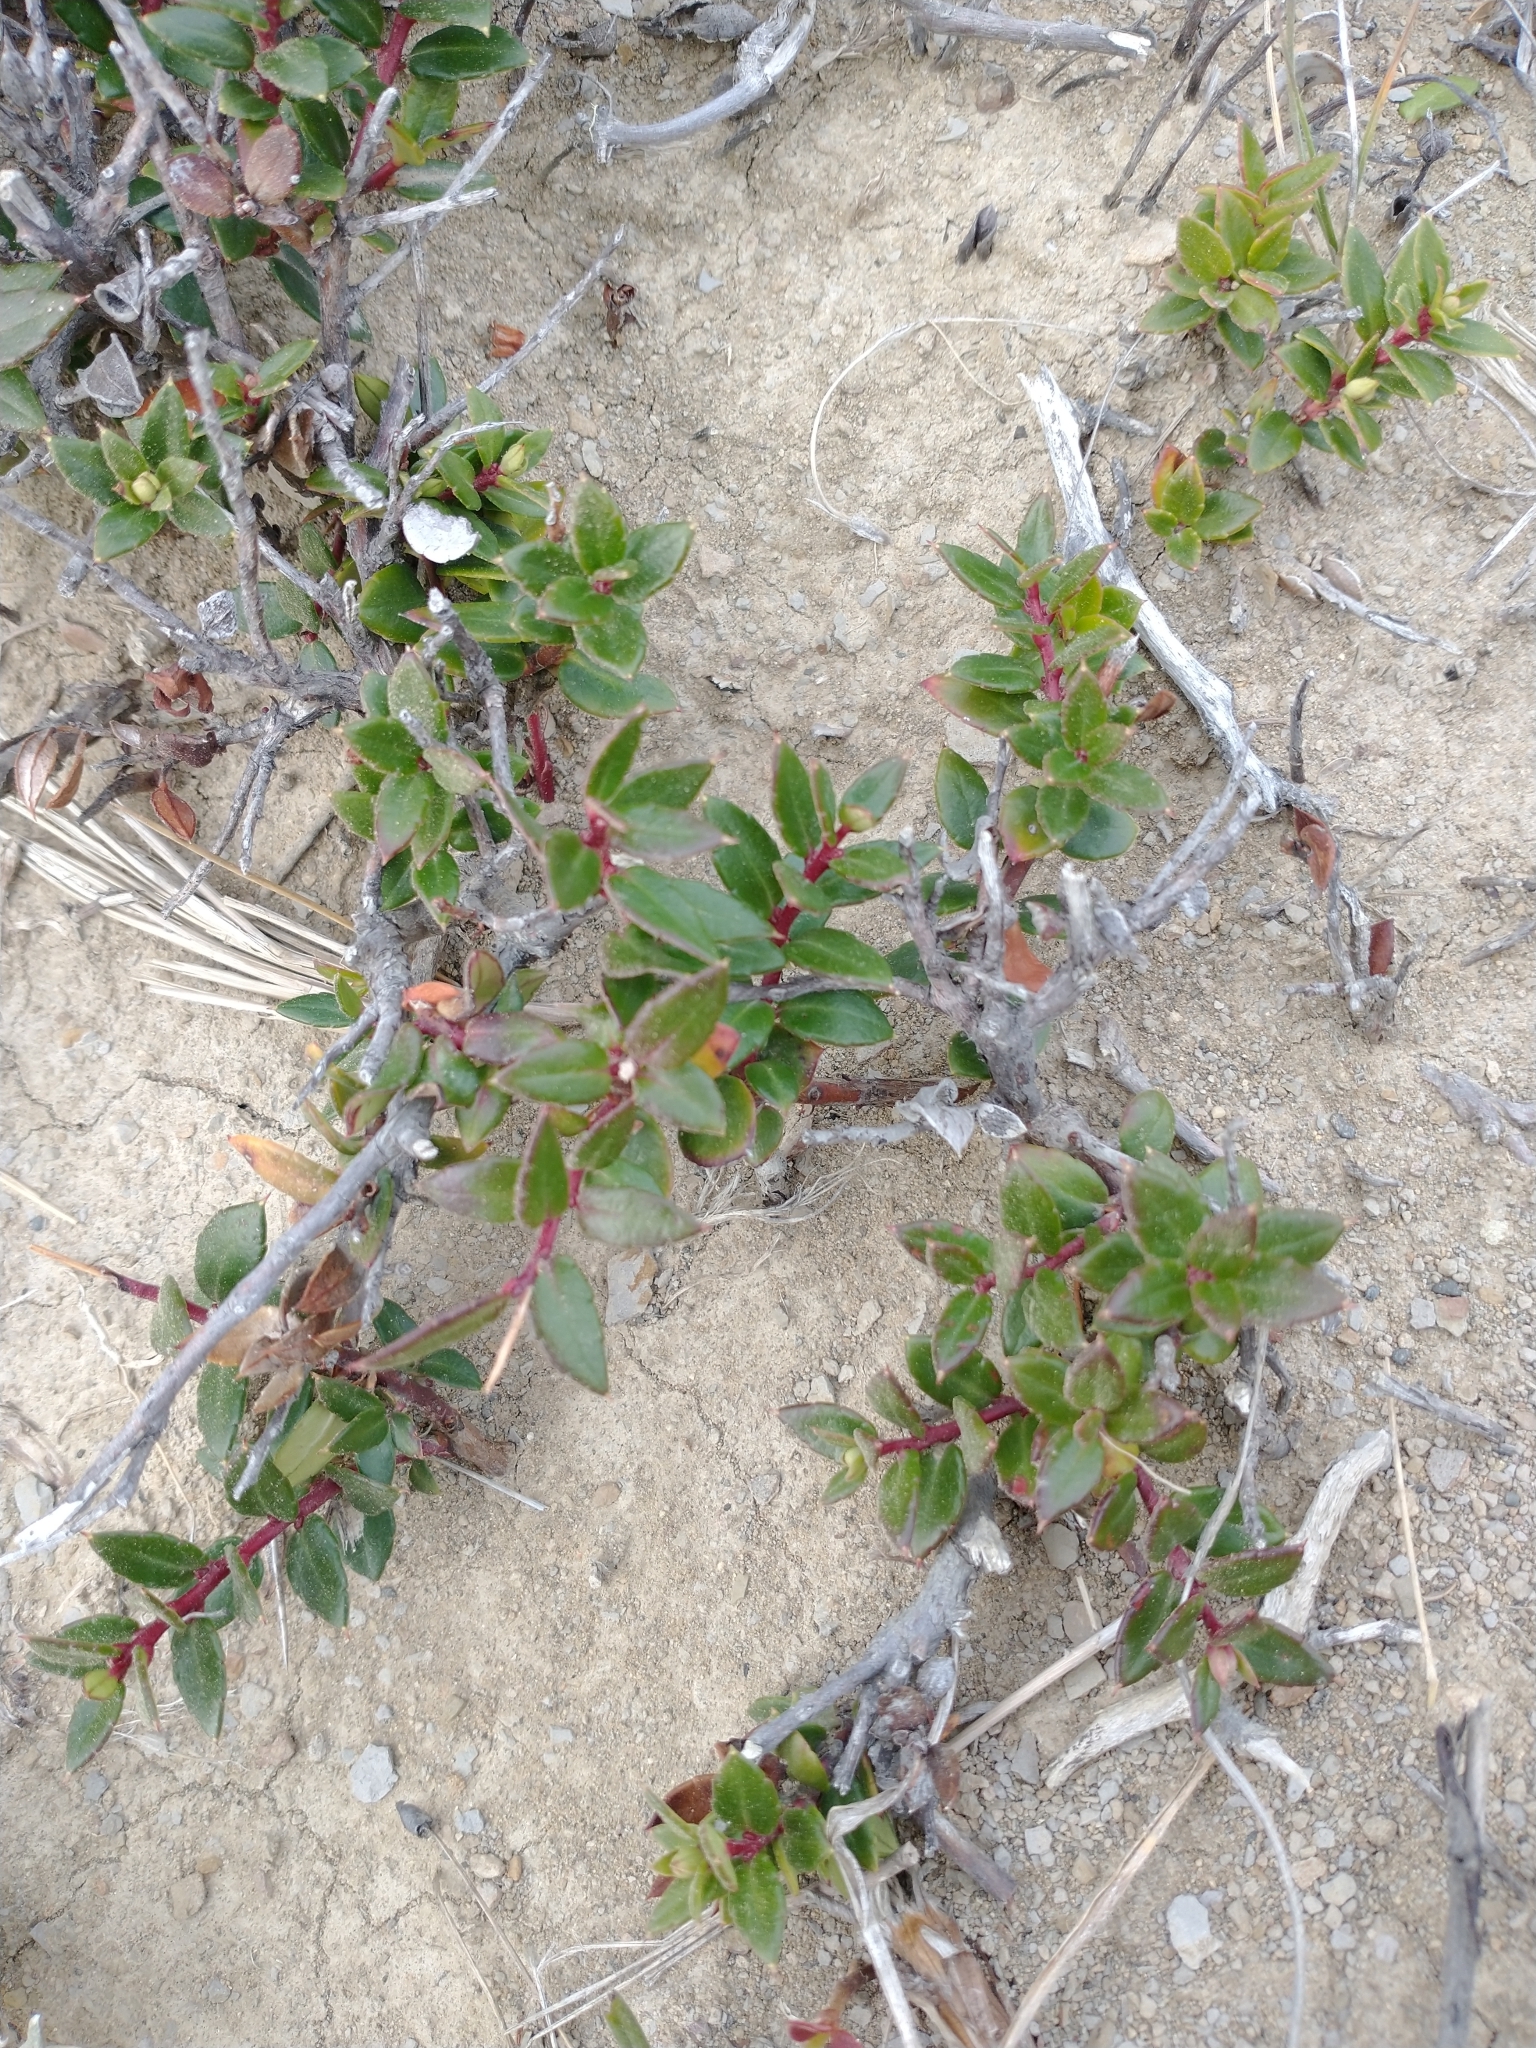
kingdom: Plantae
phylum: Tracheophyta
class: Magnoliopsida
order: Ericales
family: Ericaceae
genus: Gaultheria
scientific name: Gaultheria mucronata
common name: Prickly heath
